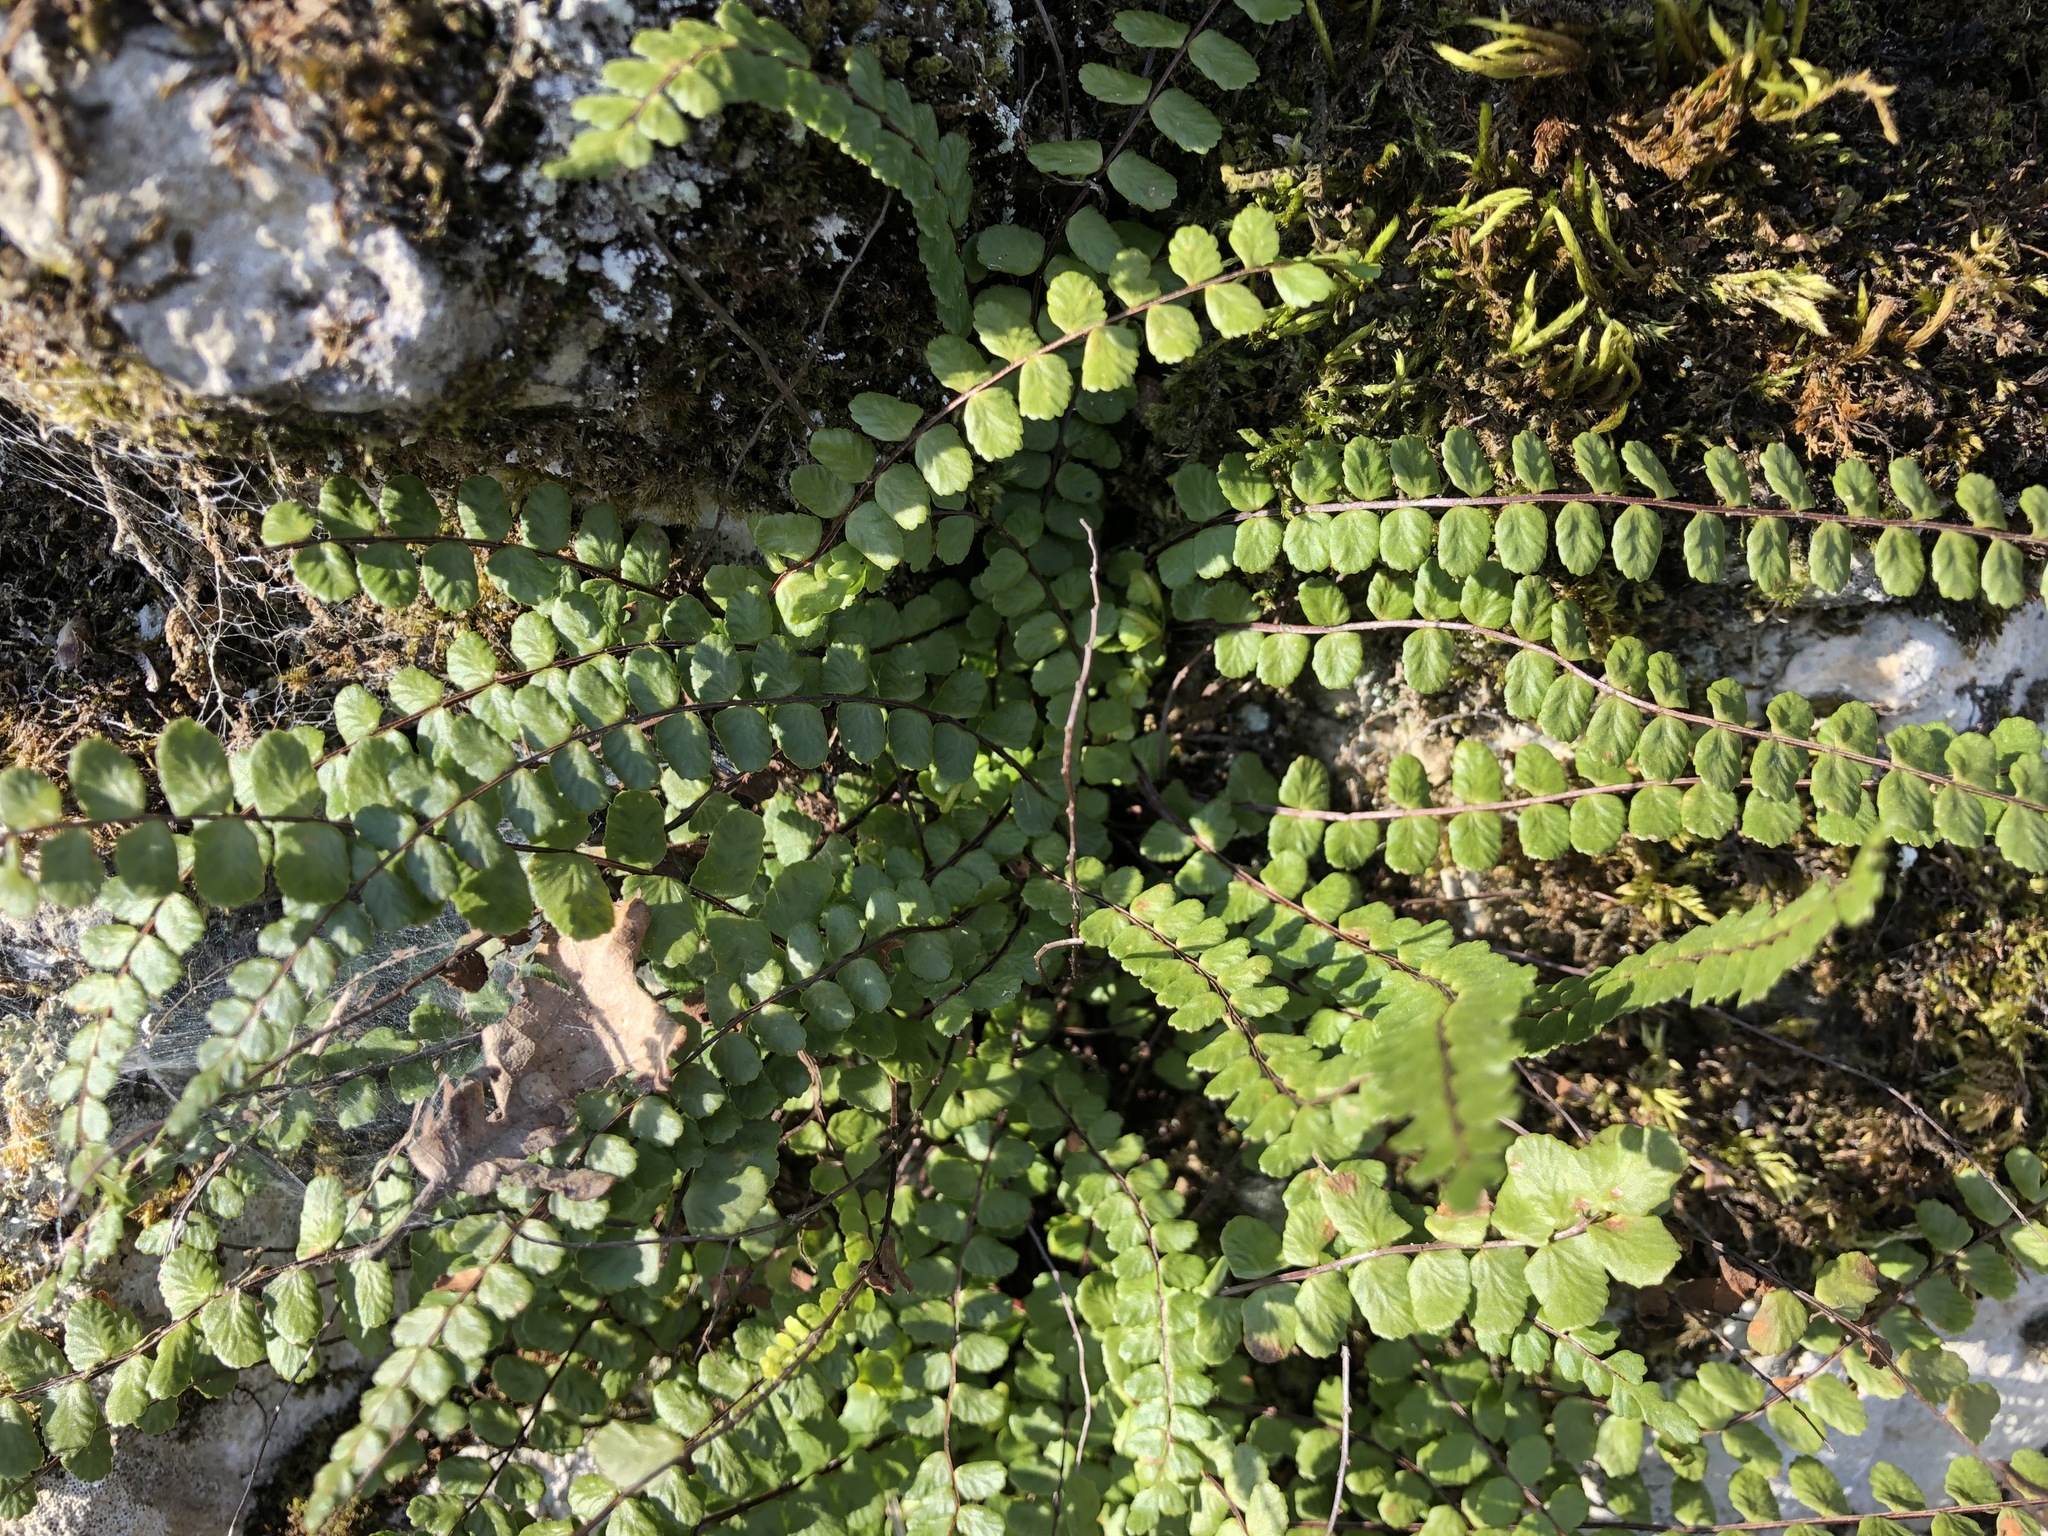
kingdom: Plantae
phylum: Tracheophyta
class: Polypodiopsida
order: Polypodiales
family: Aspleniaceae
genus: Asplenium
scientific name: Asplenium trichomanes
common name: Maidenhair spleenwort
